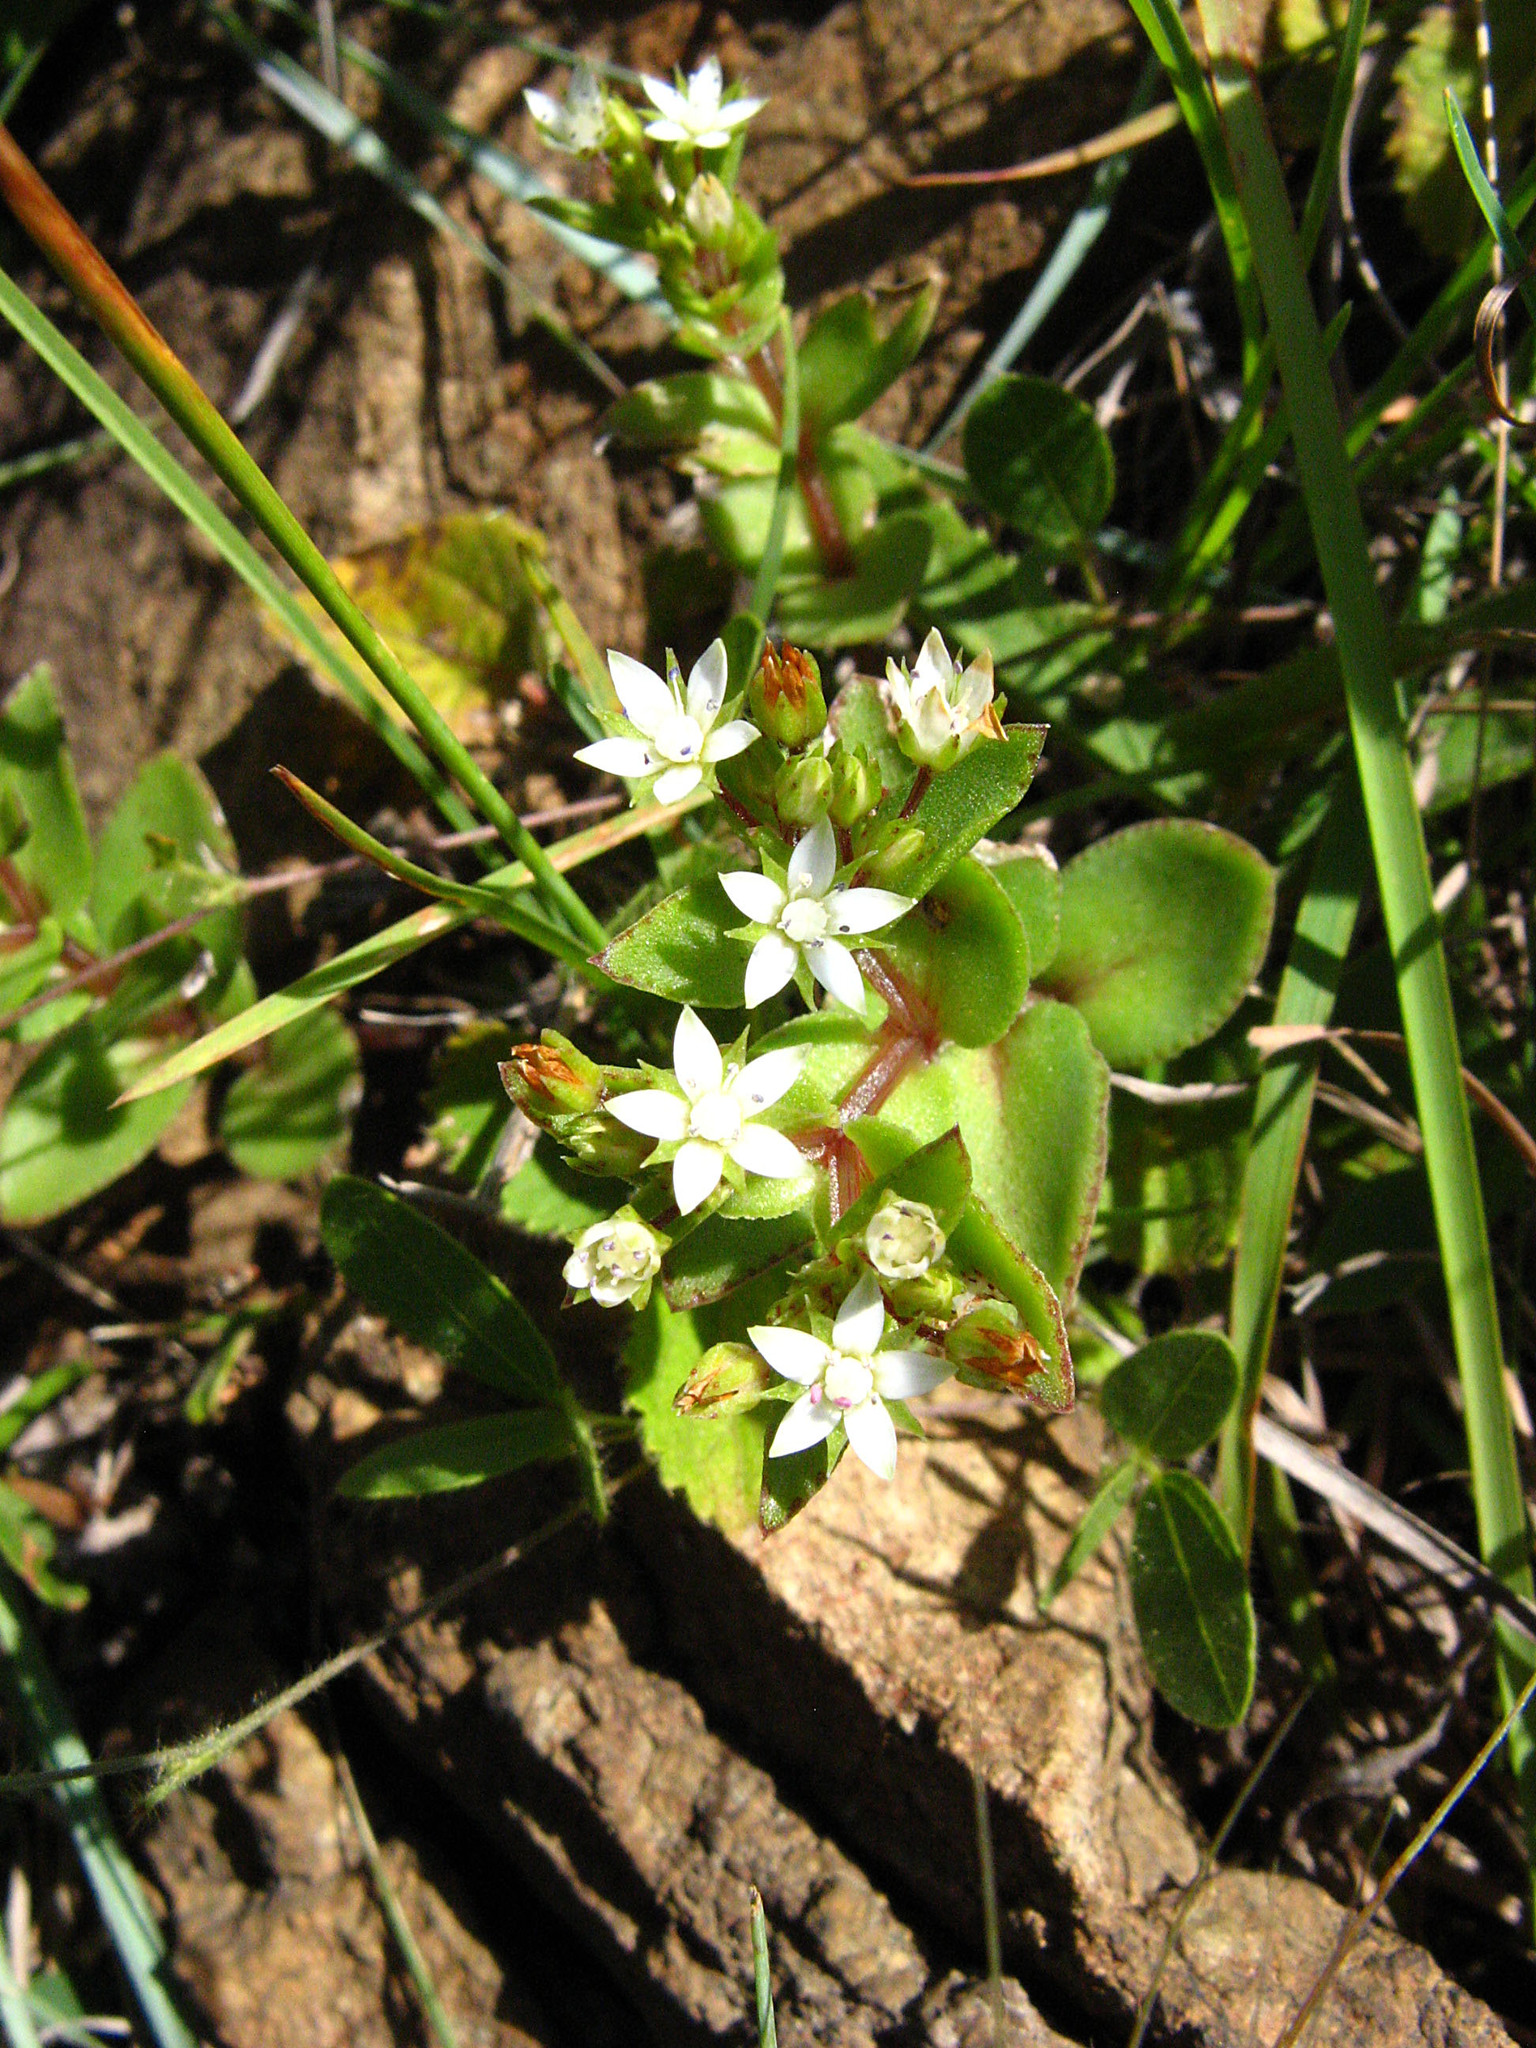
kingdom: Plantae
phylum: Tracheophyta
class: Magnoliopsida
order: Saxifragales
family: Crassulaceae
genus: Crassula
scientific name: Crassula pellucida
